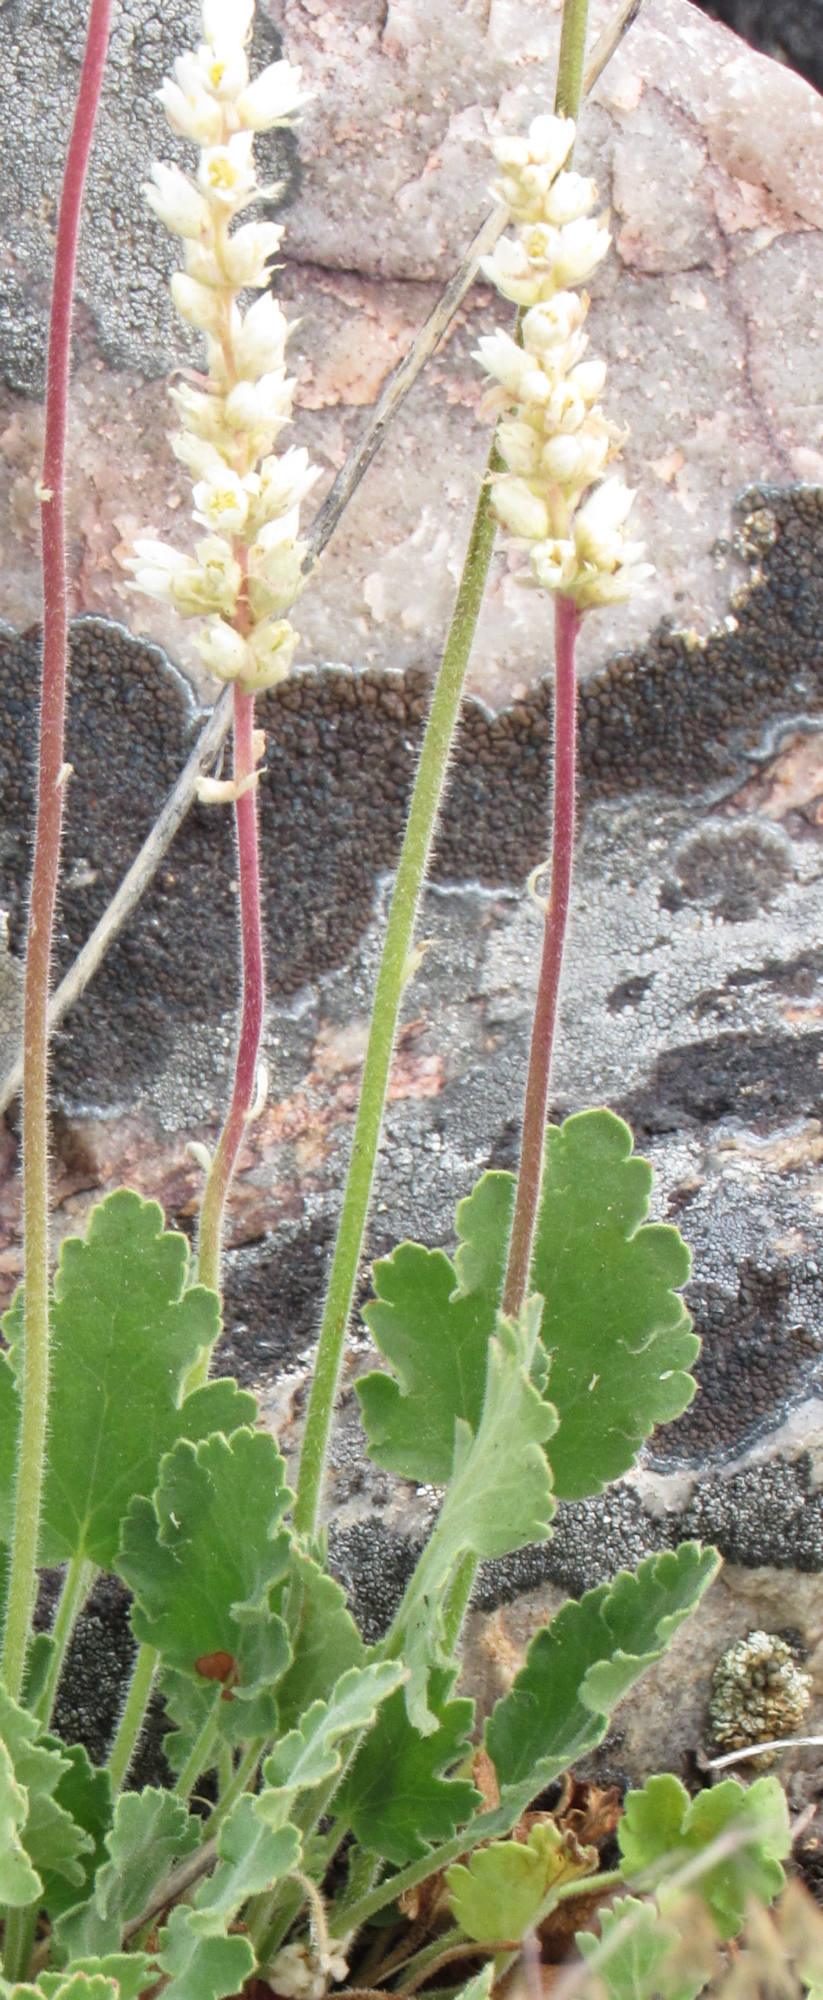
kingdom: Plantae
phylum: Tracheophyta
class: Magnoliopsida
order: Saxifragales
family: Saxifragaceae
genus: Heuchera
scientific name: Heuchera cylindrica
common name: Mat alumroot
